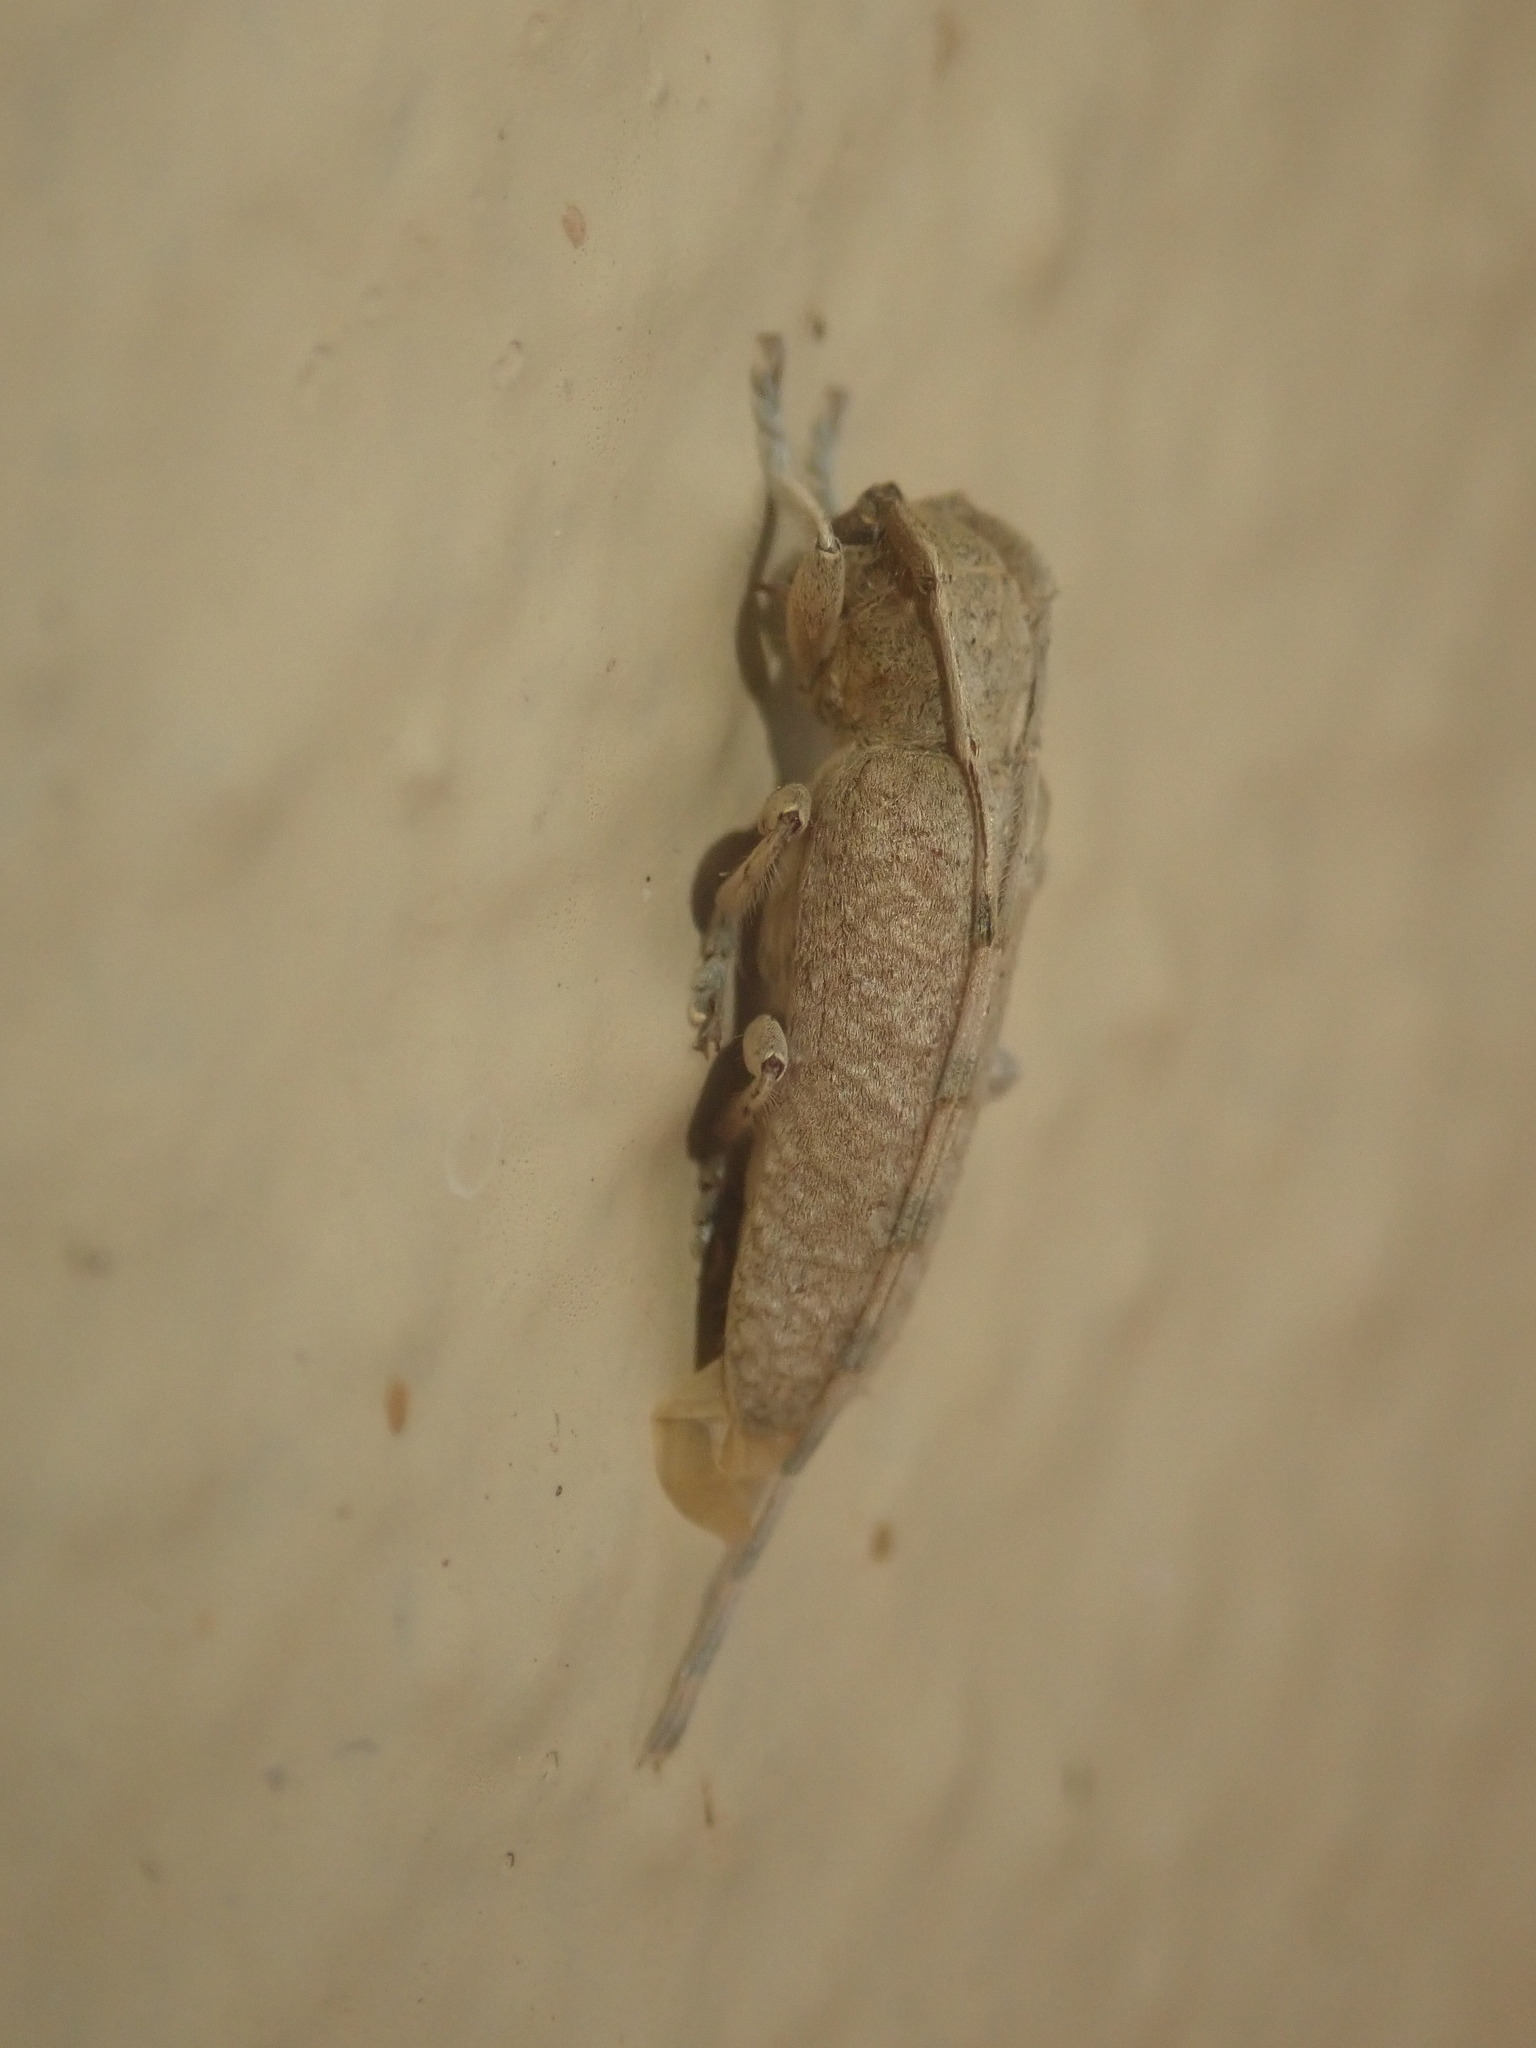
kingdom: Animalia
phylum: Arthropoda
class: Insecta
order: Coleoptera
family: Cerambycidae
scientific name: Cerambycidae
